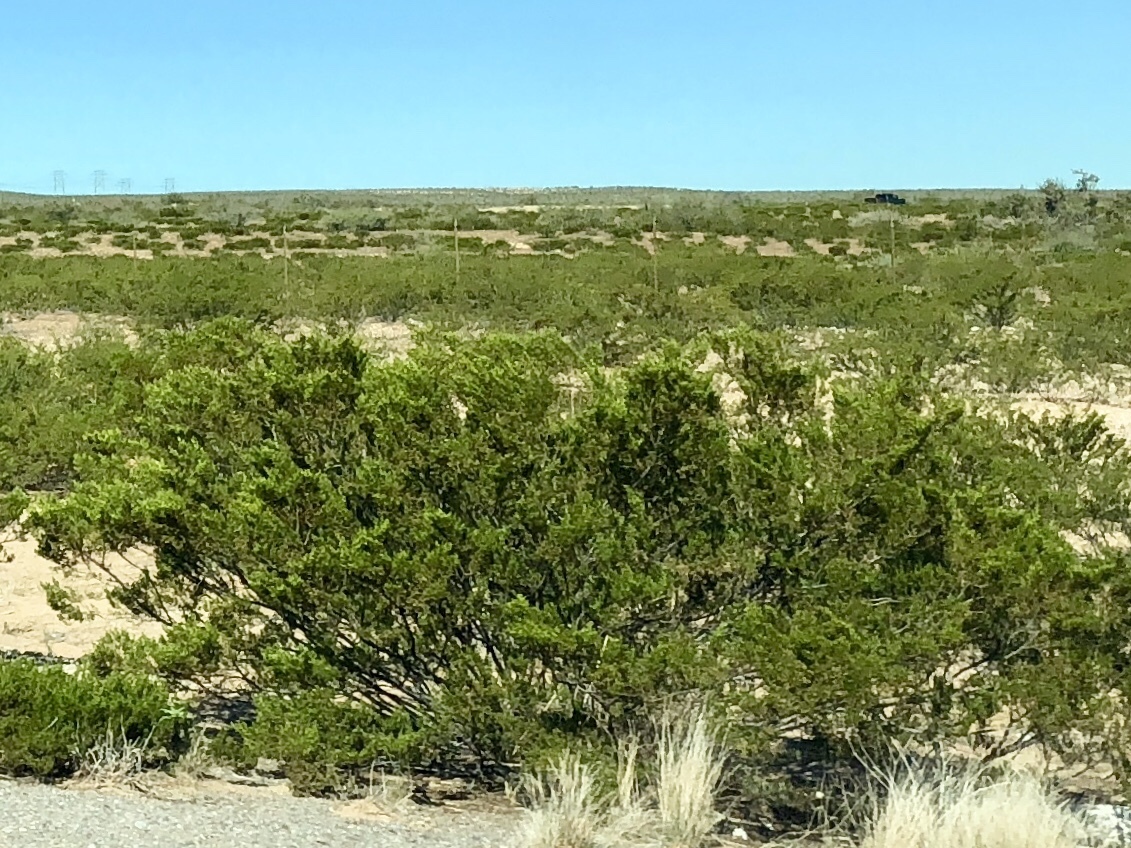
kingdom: Plantae
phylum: Tracheophyta
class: Magnoliopsida
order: Zygophyllales
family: Zygophyllaceae
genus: Larrea
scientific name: Larrea tridentata
